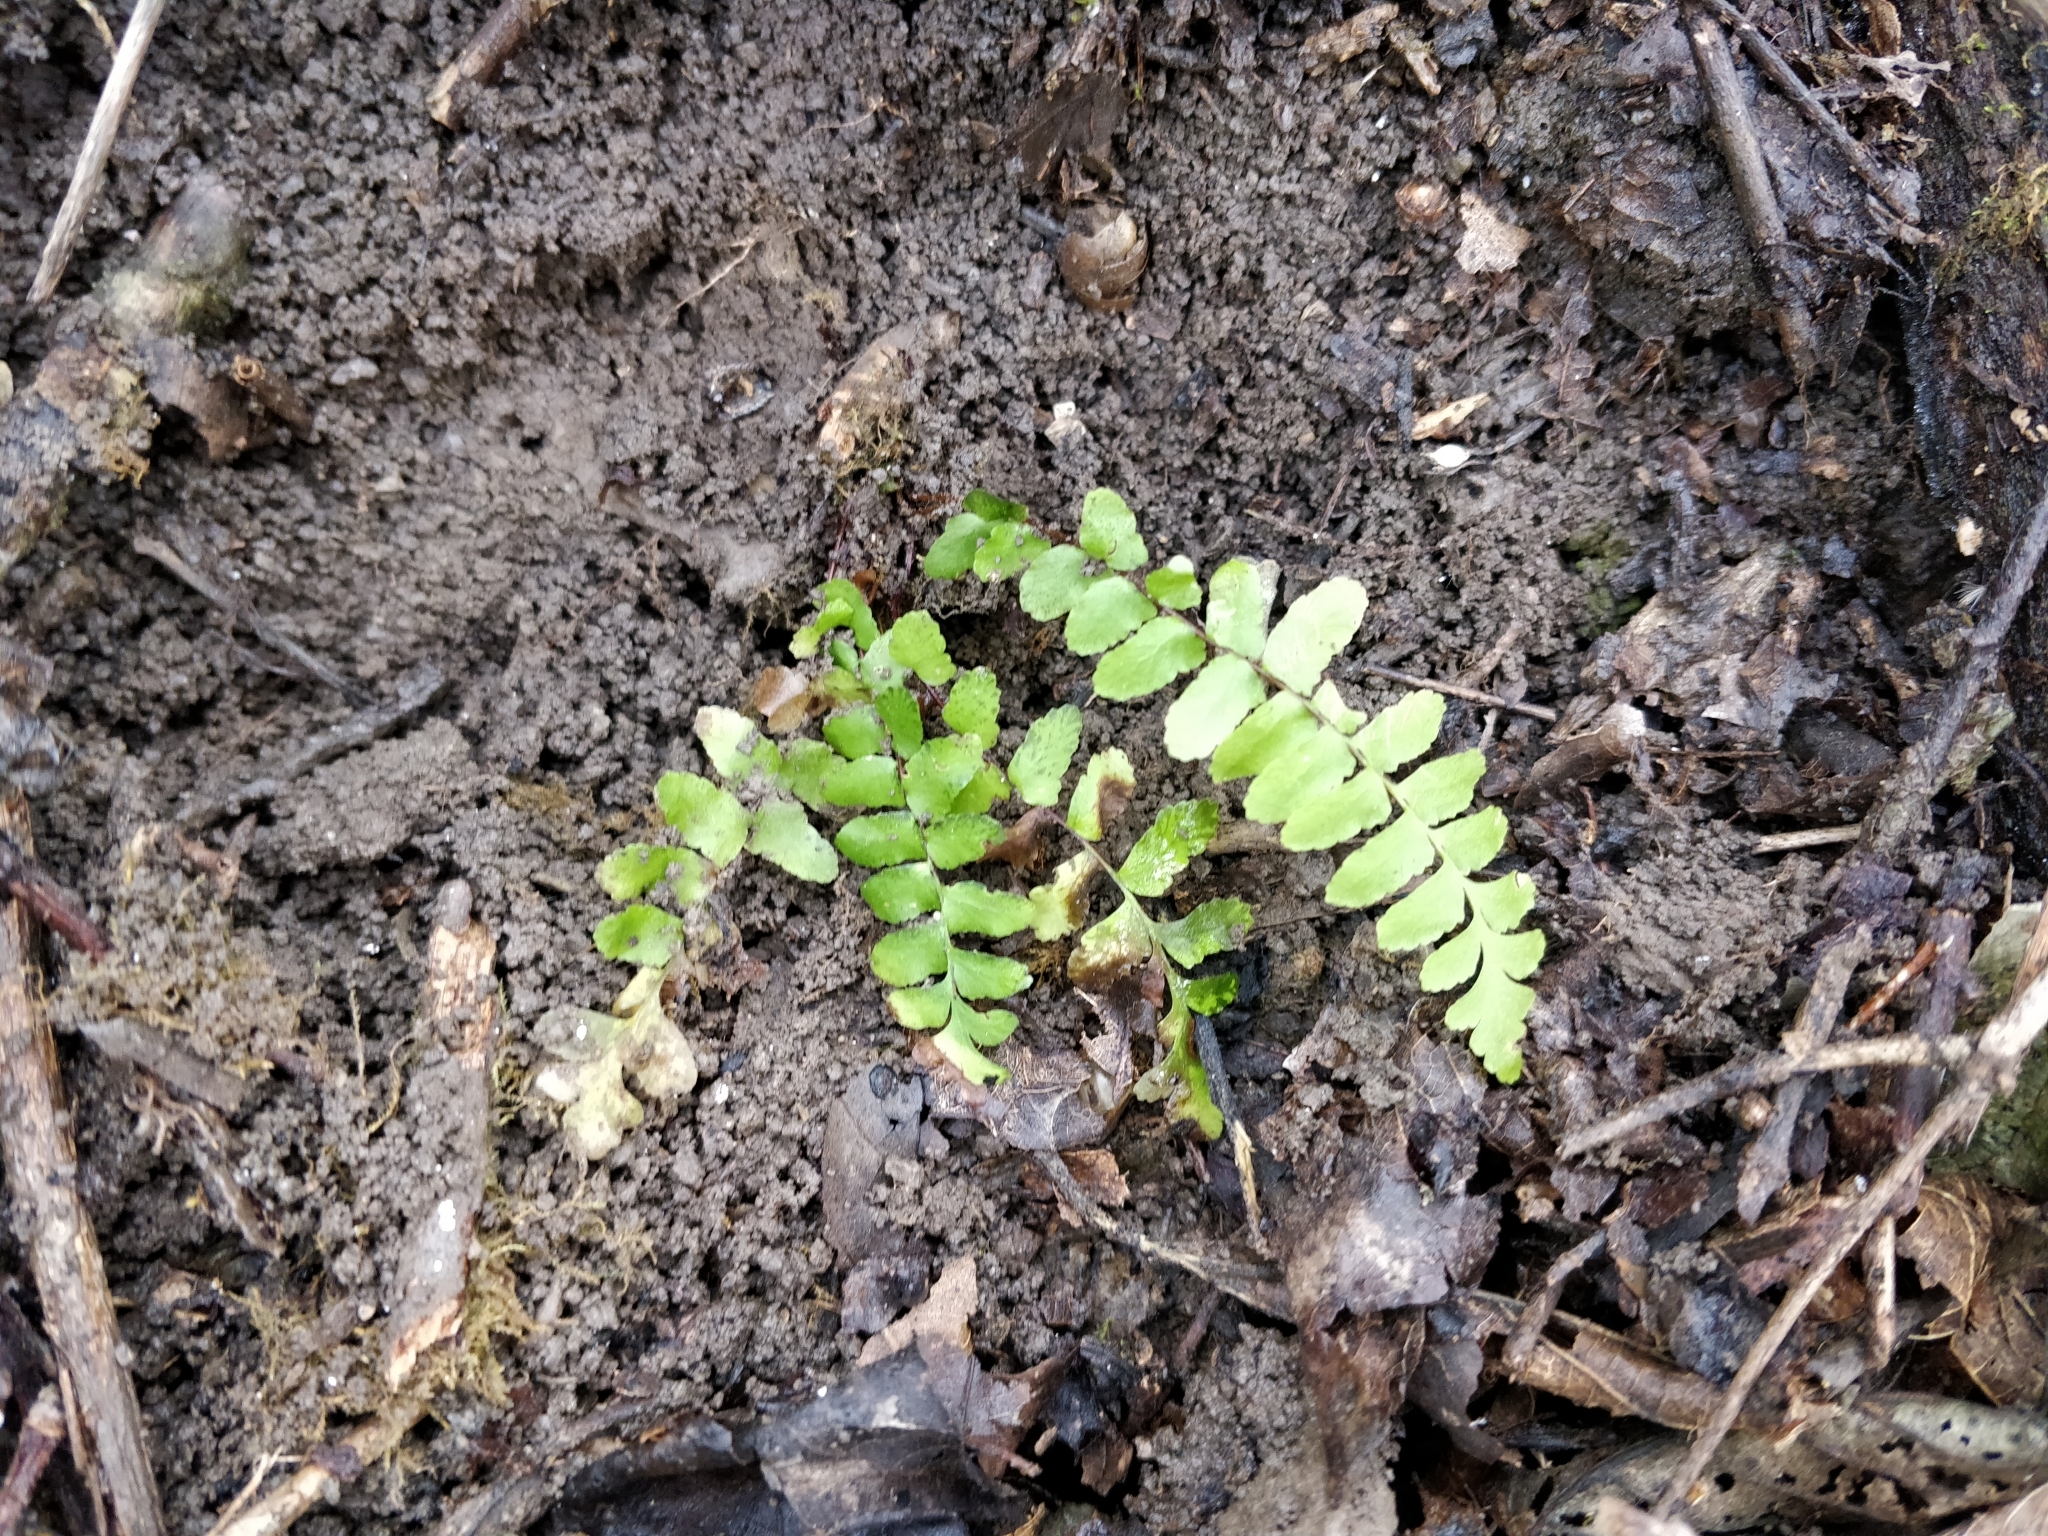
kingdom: Plantae
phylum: Tracheophyta
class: Polypodiopsida
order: Polypodiales
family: Aspleniaceae
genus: Asplenium
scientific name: Asplenium platyneuron
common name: Ebony spleenwort
